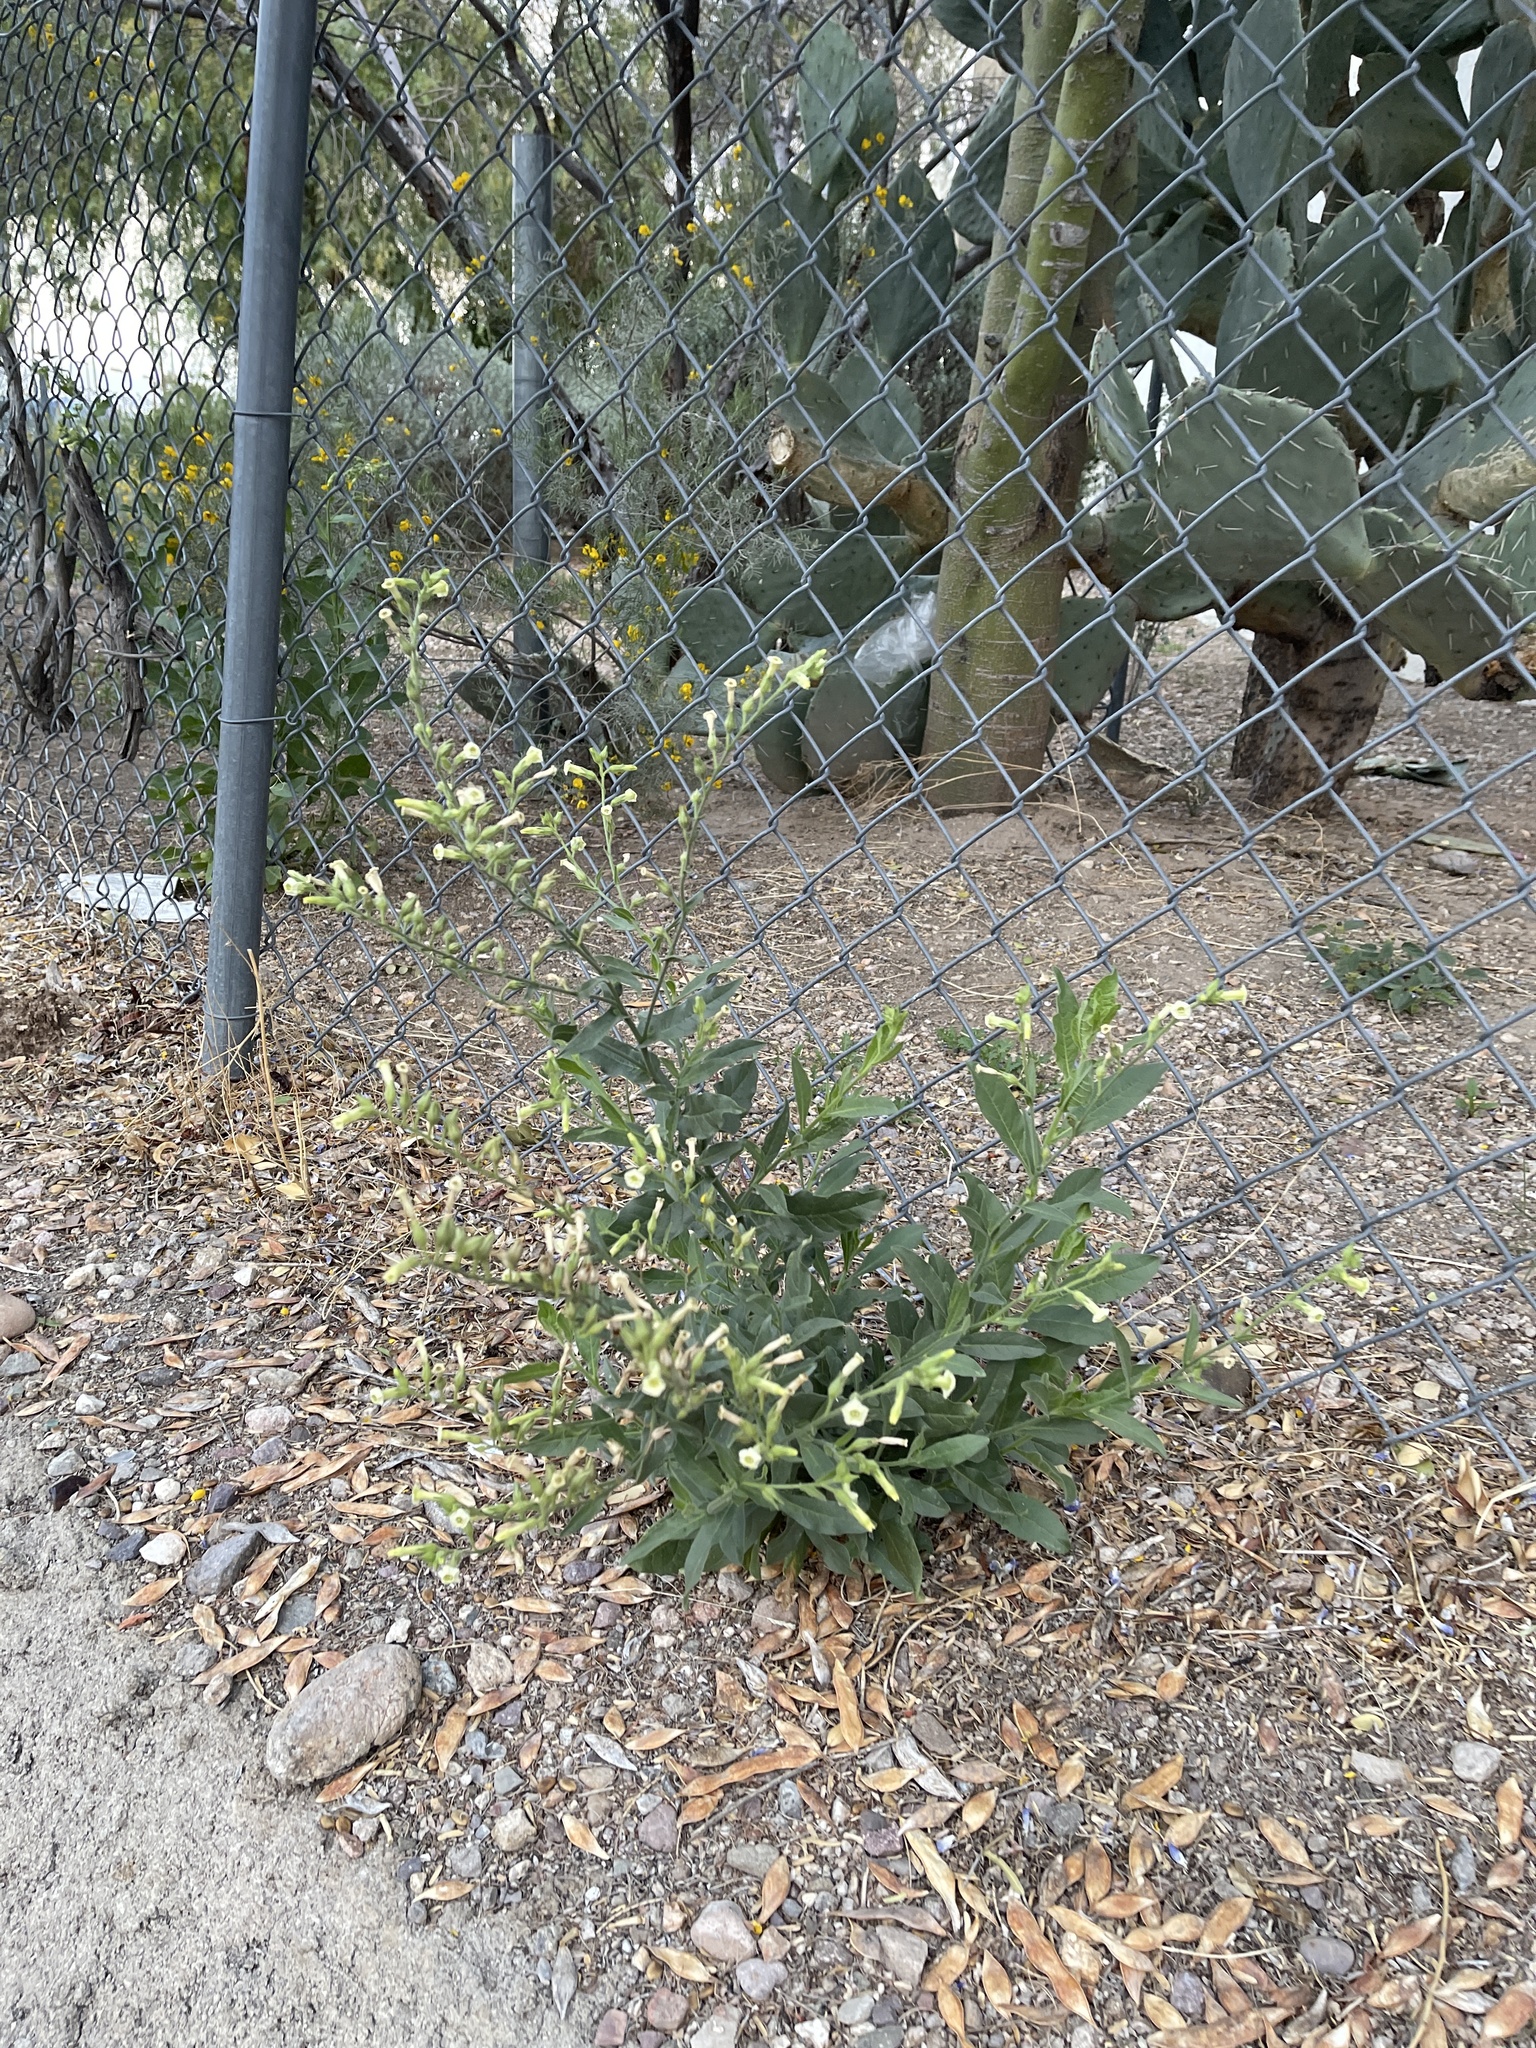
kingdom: Plantae
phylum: Tracheophyta
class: Magnoliopsida
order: Solanales
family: Solanaceae
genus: Nicotiana
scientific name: Nicotiana obtusifolia
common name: Desert tobacco
